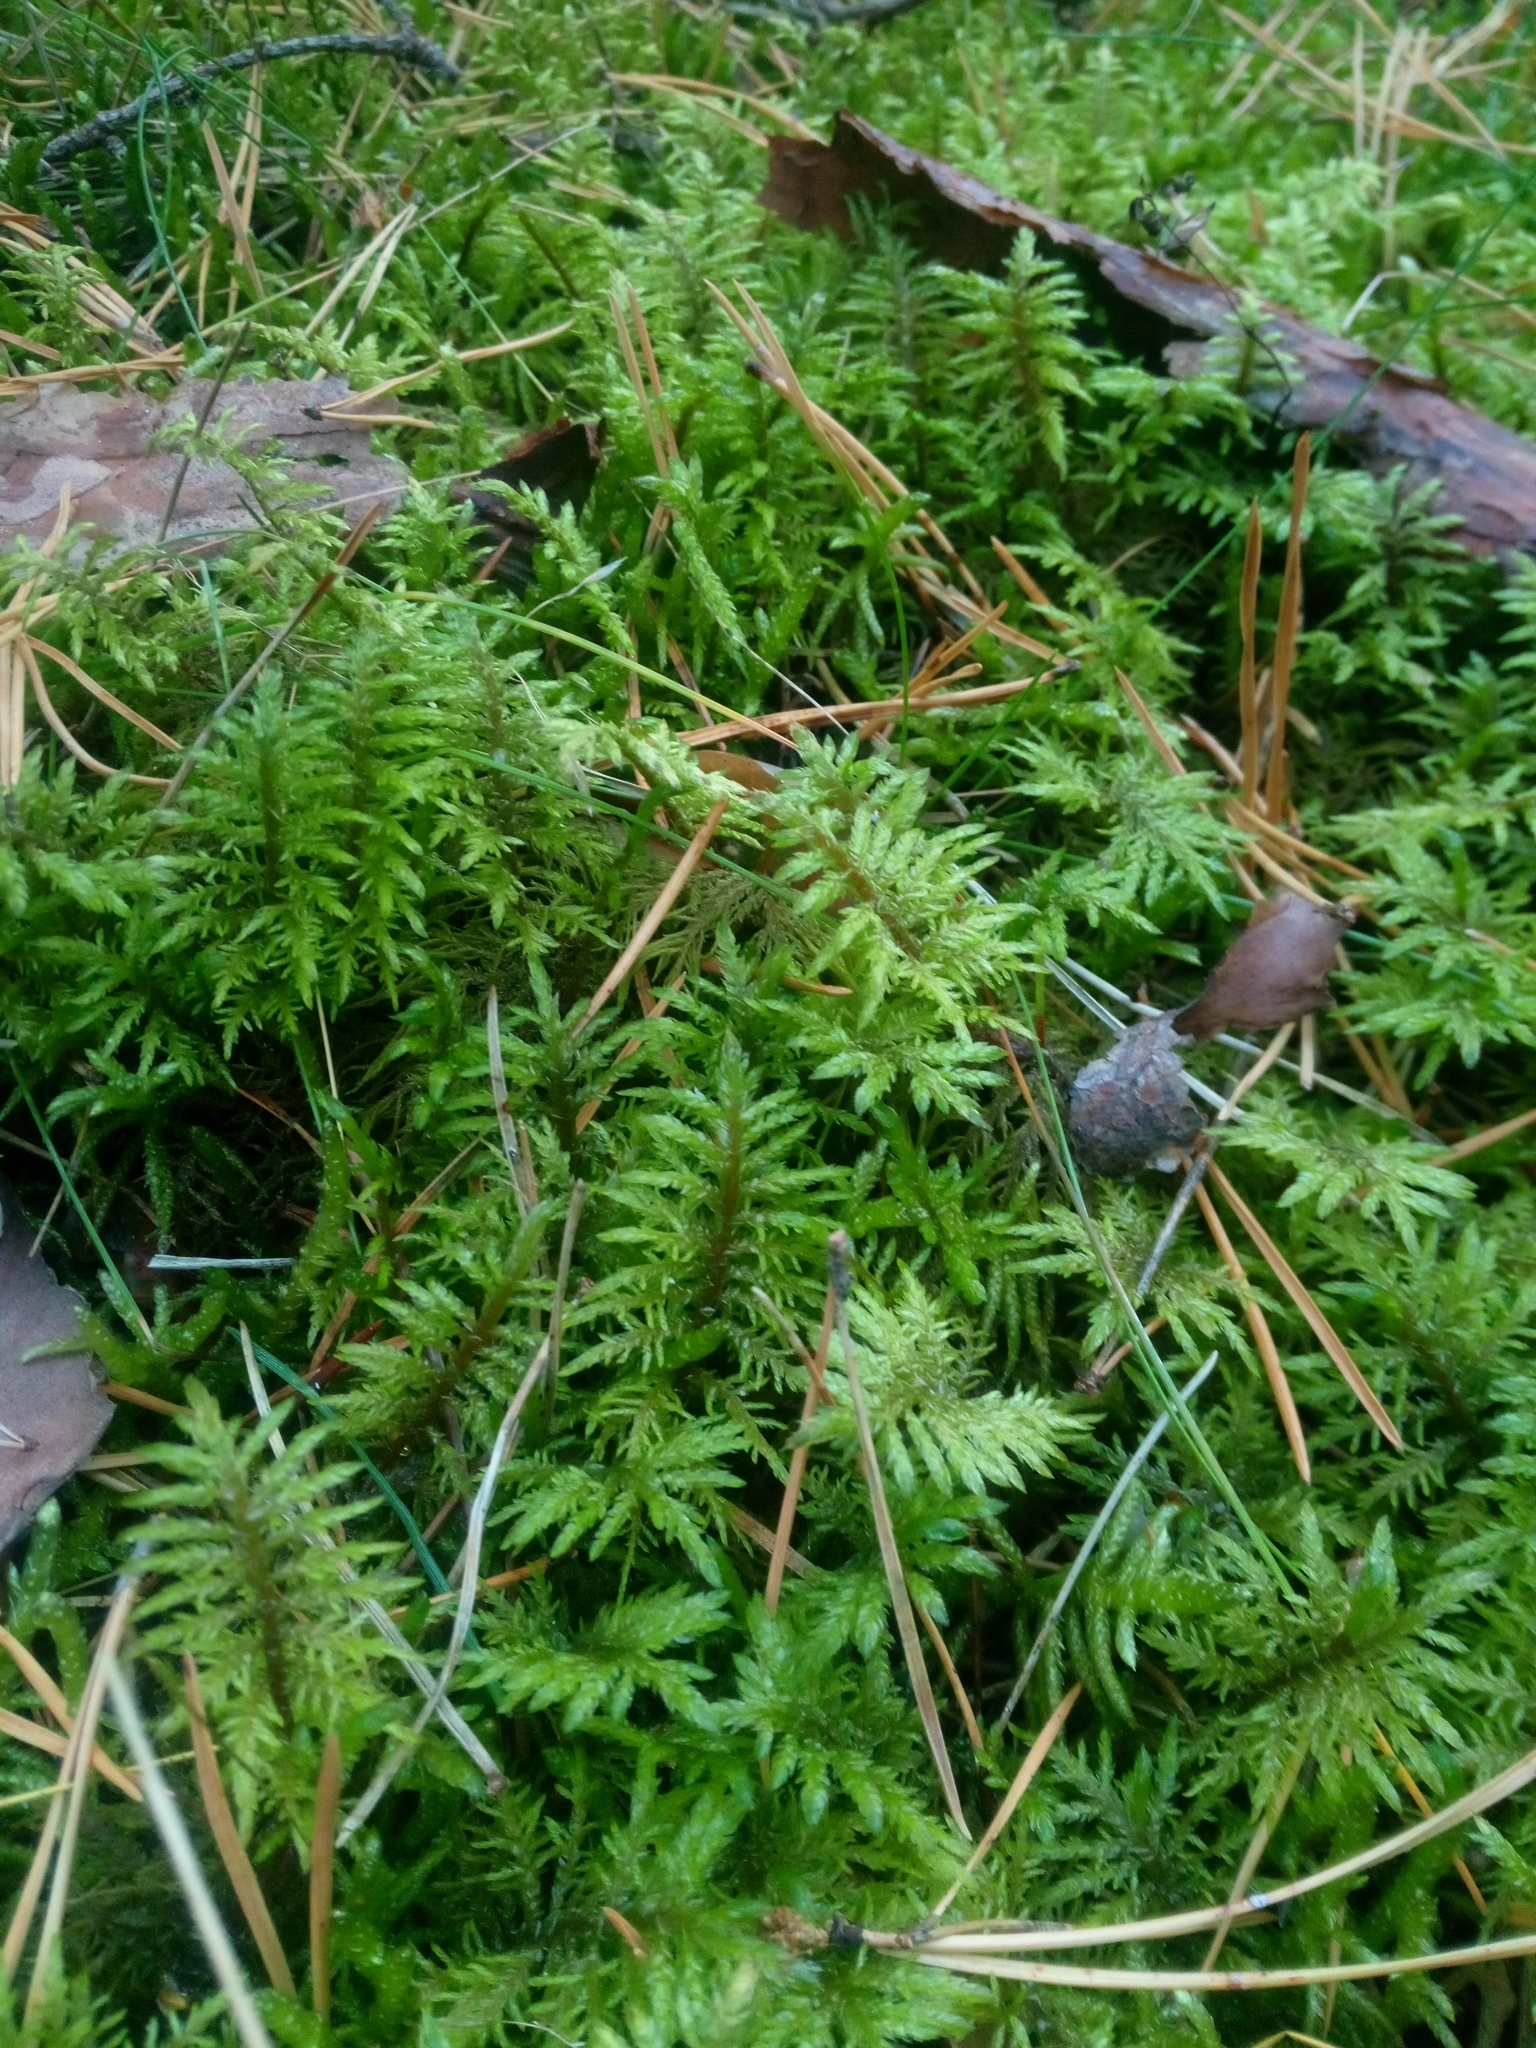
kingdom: Plantae
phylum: Bryophyta
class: Bryopsida
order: Hypnales
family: Hylocomiaceae
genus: Hylocomium
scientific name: Hylocomium splendens
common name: Stairstep moss
